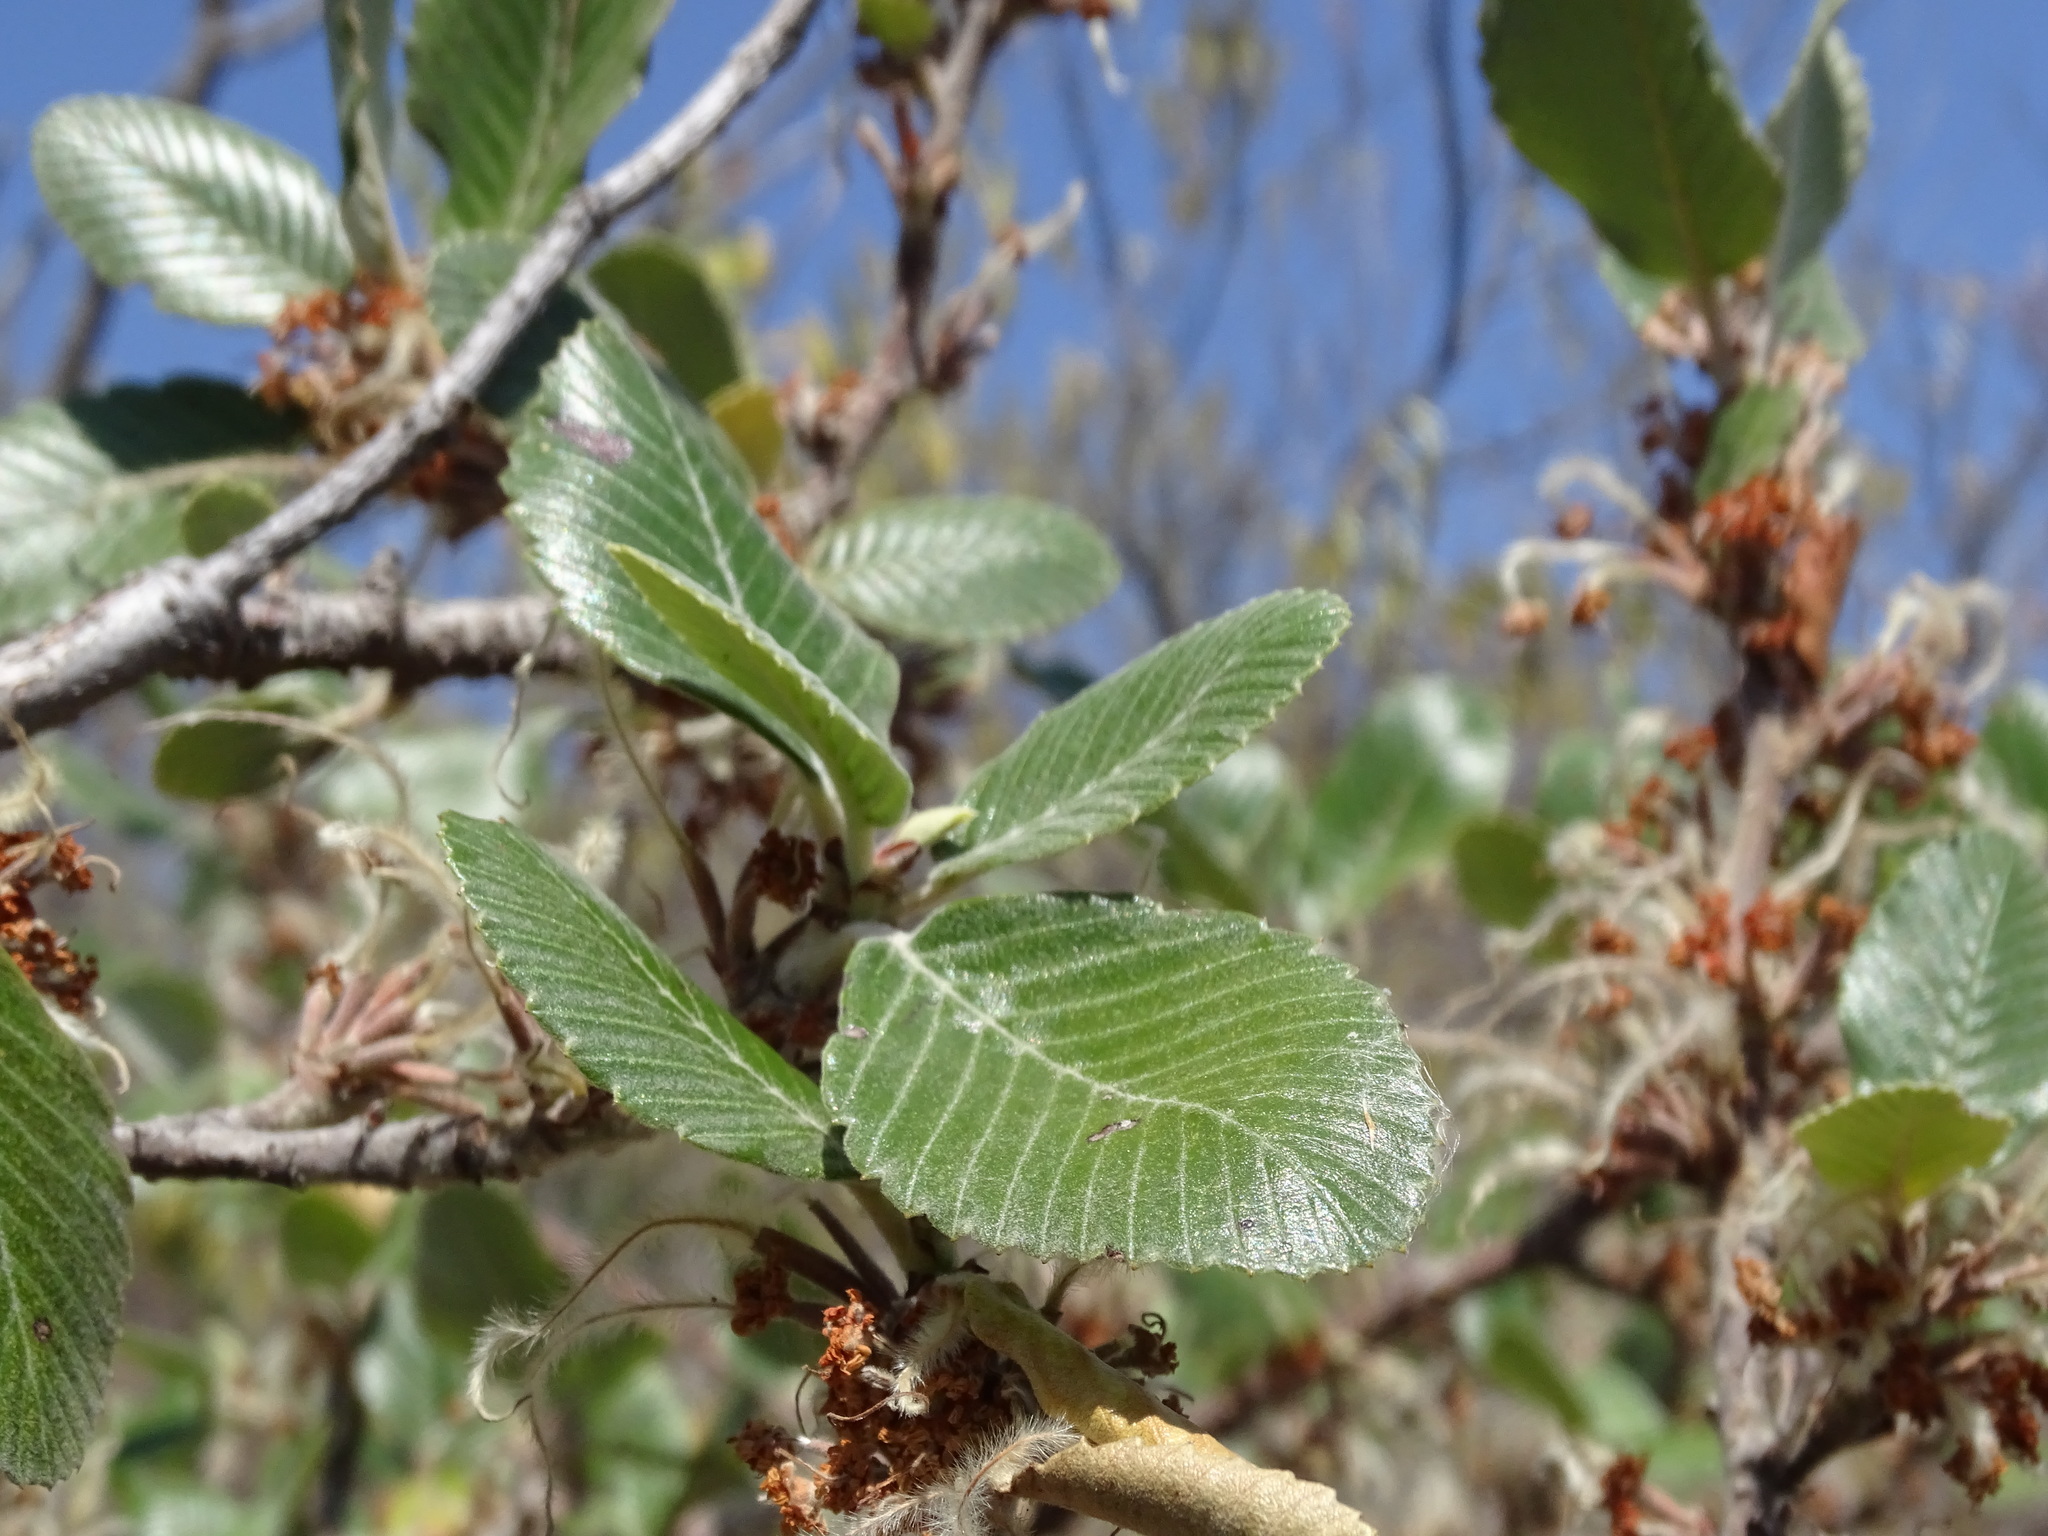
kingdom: Plantae
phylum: Tracheophyta
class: Magnoliopsida
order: Rosales
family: Rosaceae
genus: Cercocarpus
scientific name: Cercocarpus macrophyllus
